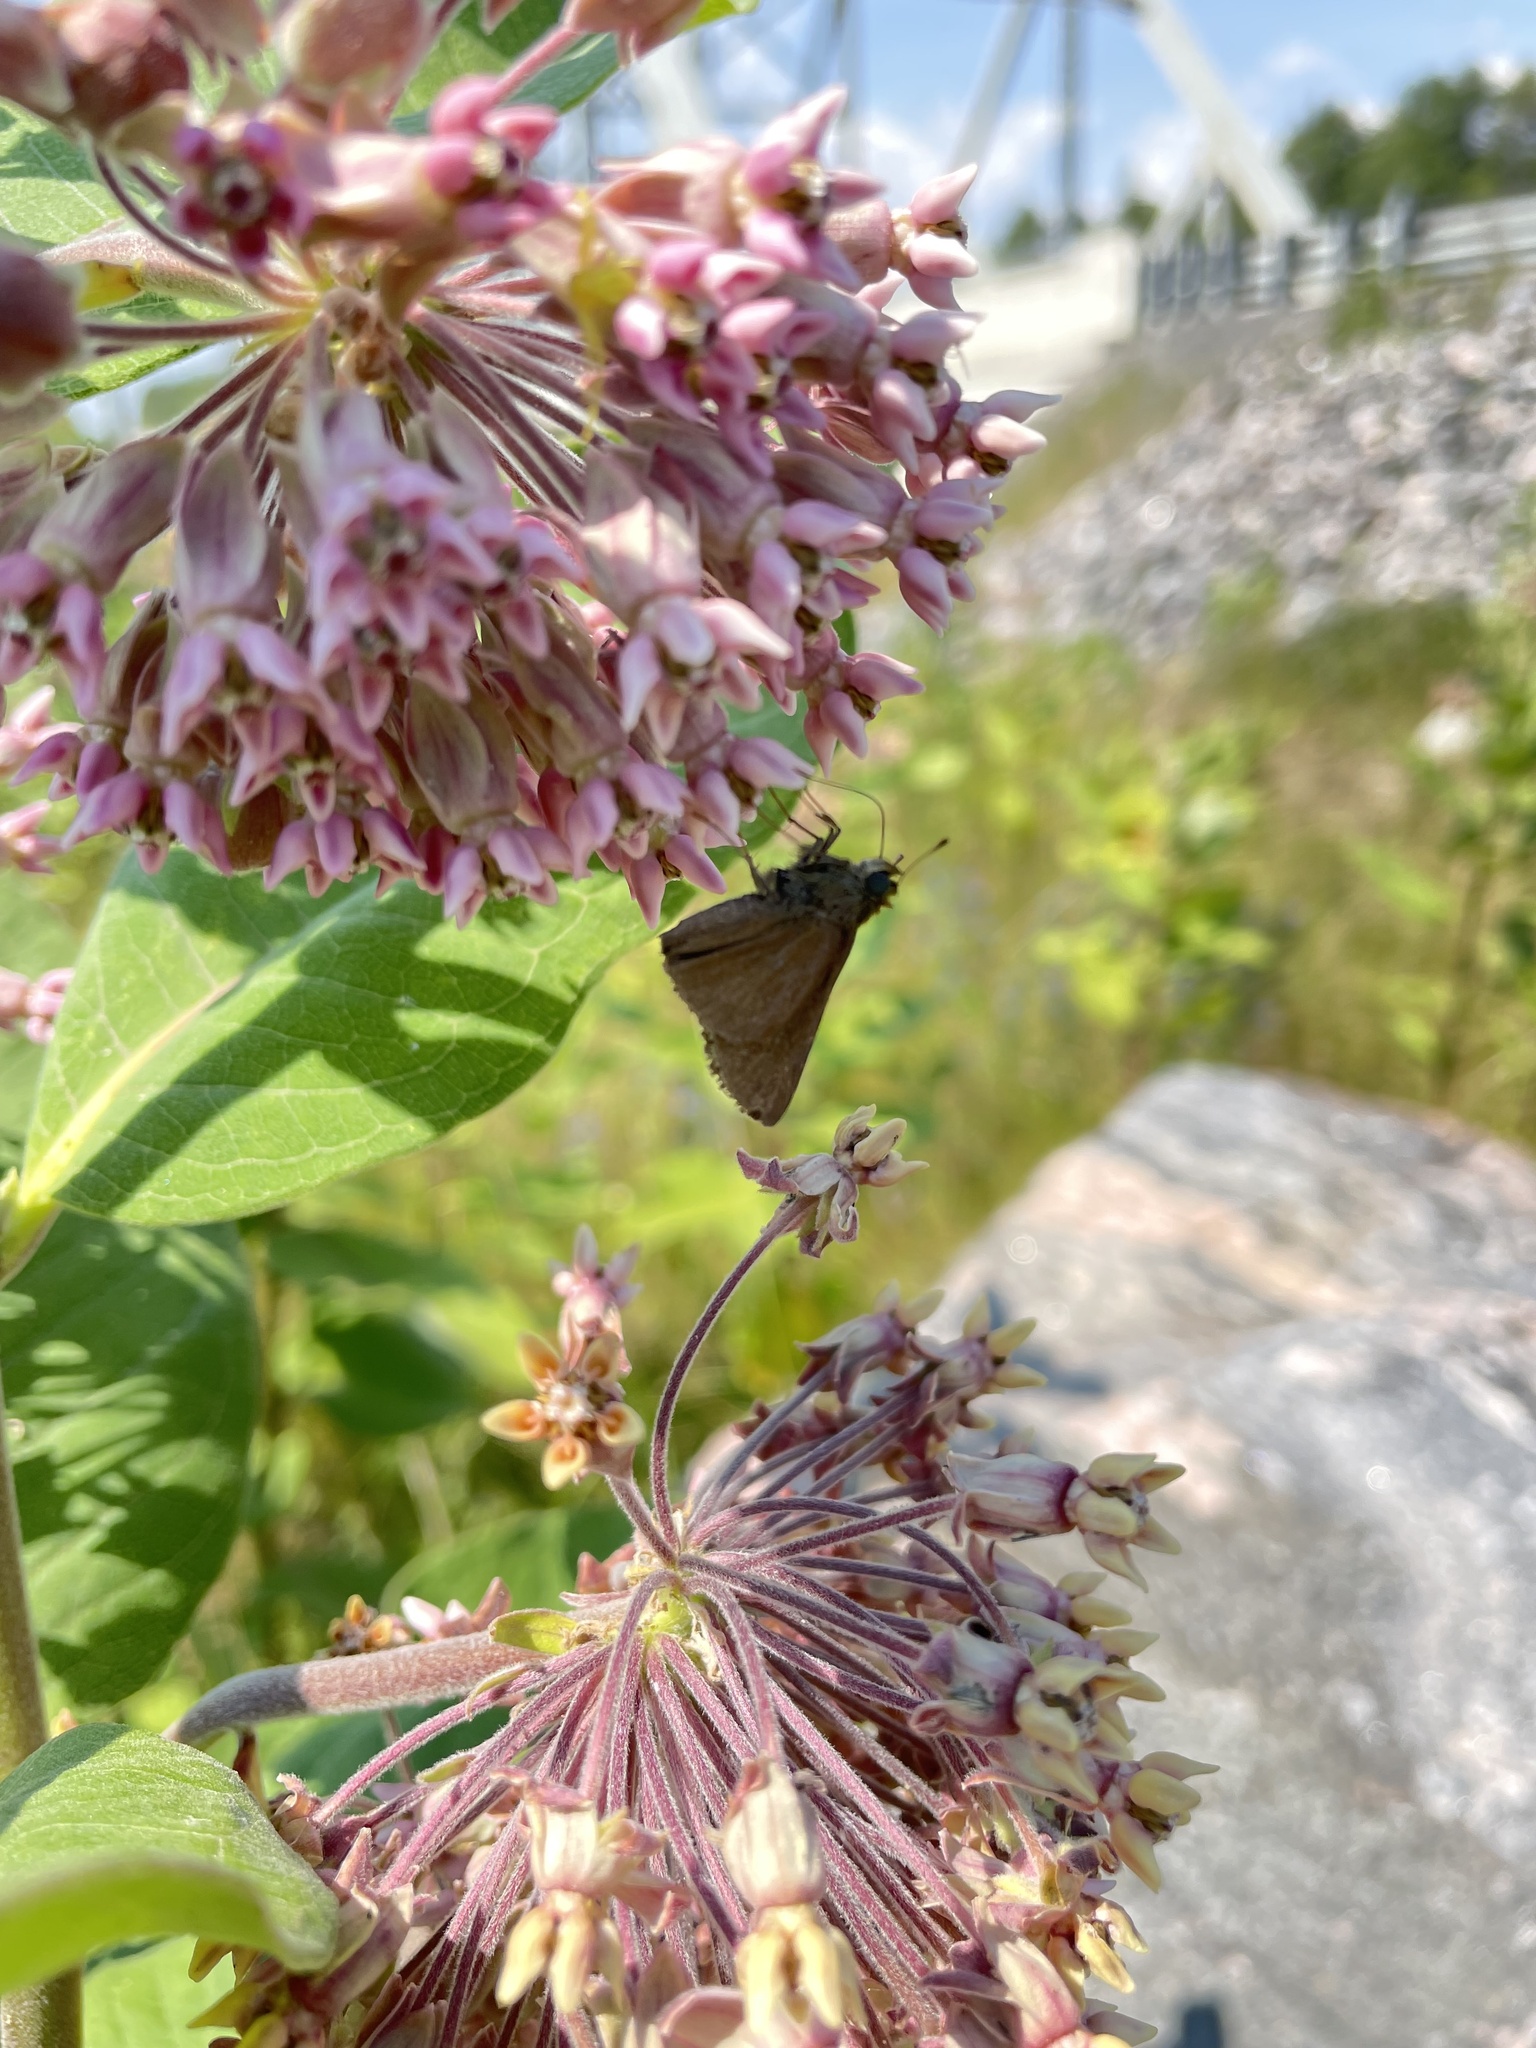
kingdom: Animalia
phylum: Arthropoda
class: Insecta
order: Lepidoptera
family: Hesperiidae
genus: Euphyes
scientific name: Euphyes vestris
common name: Dun skipper
